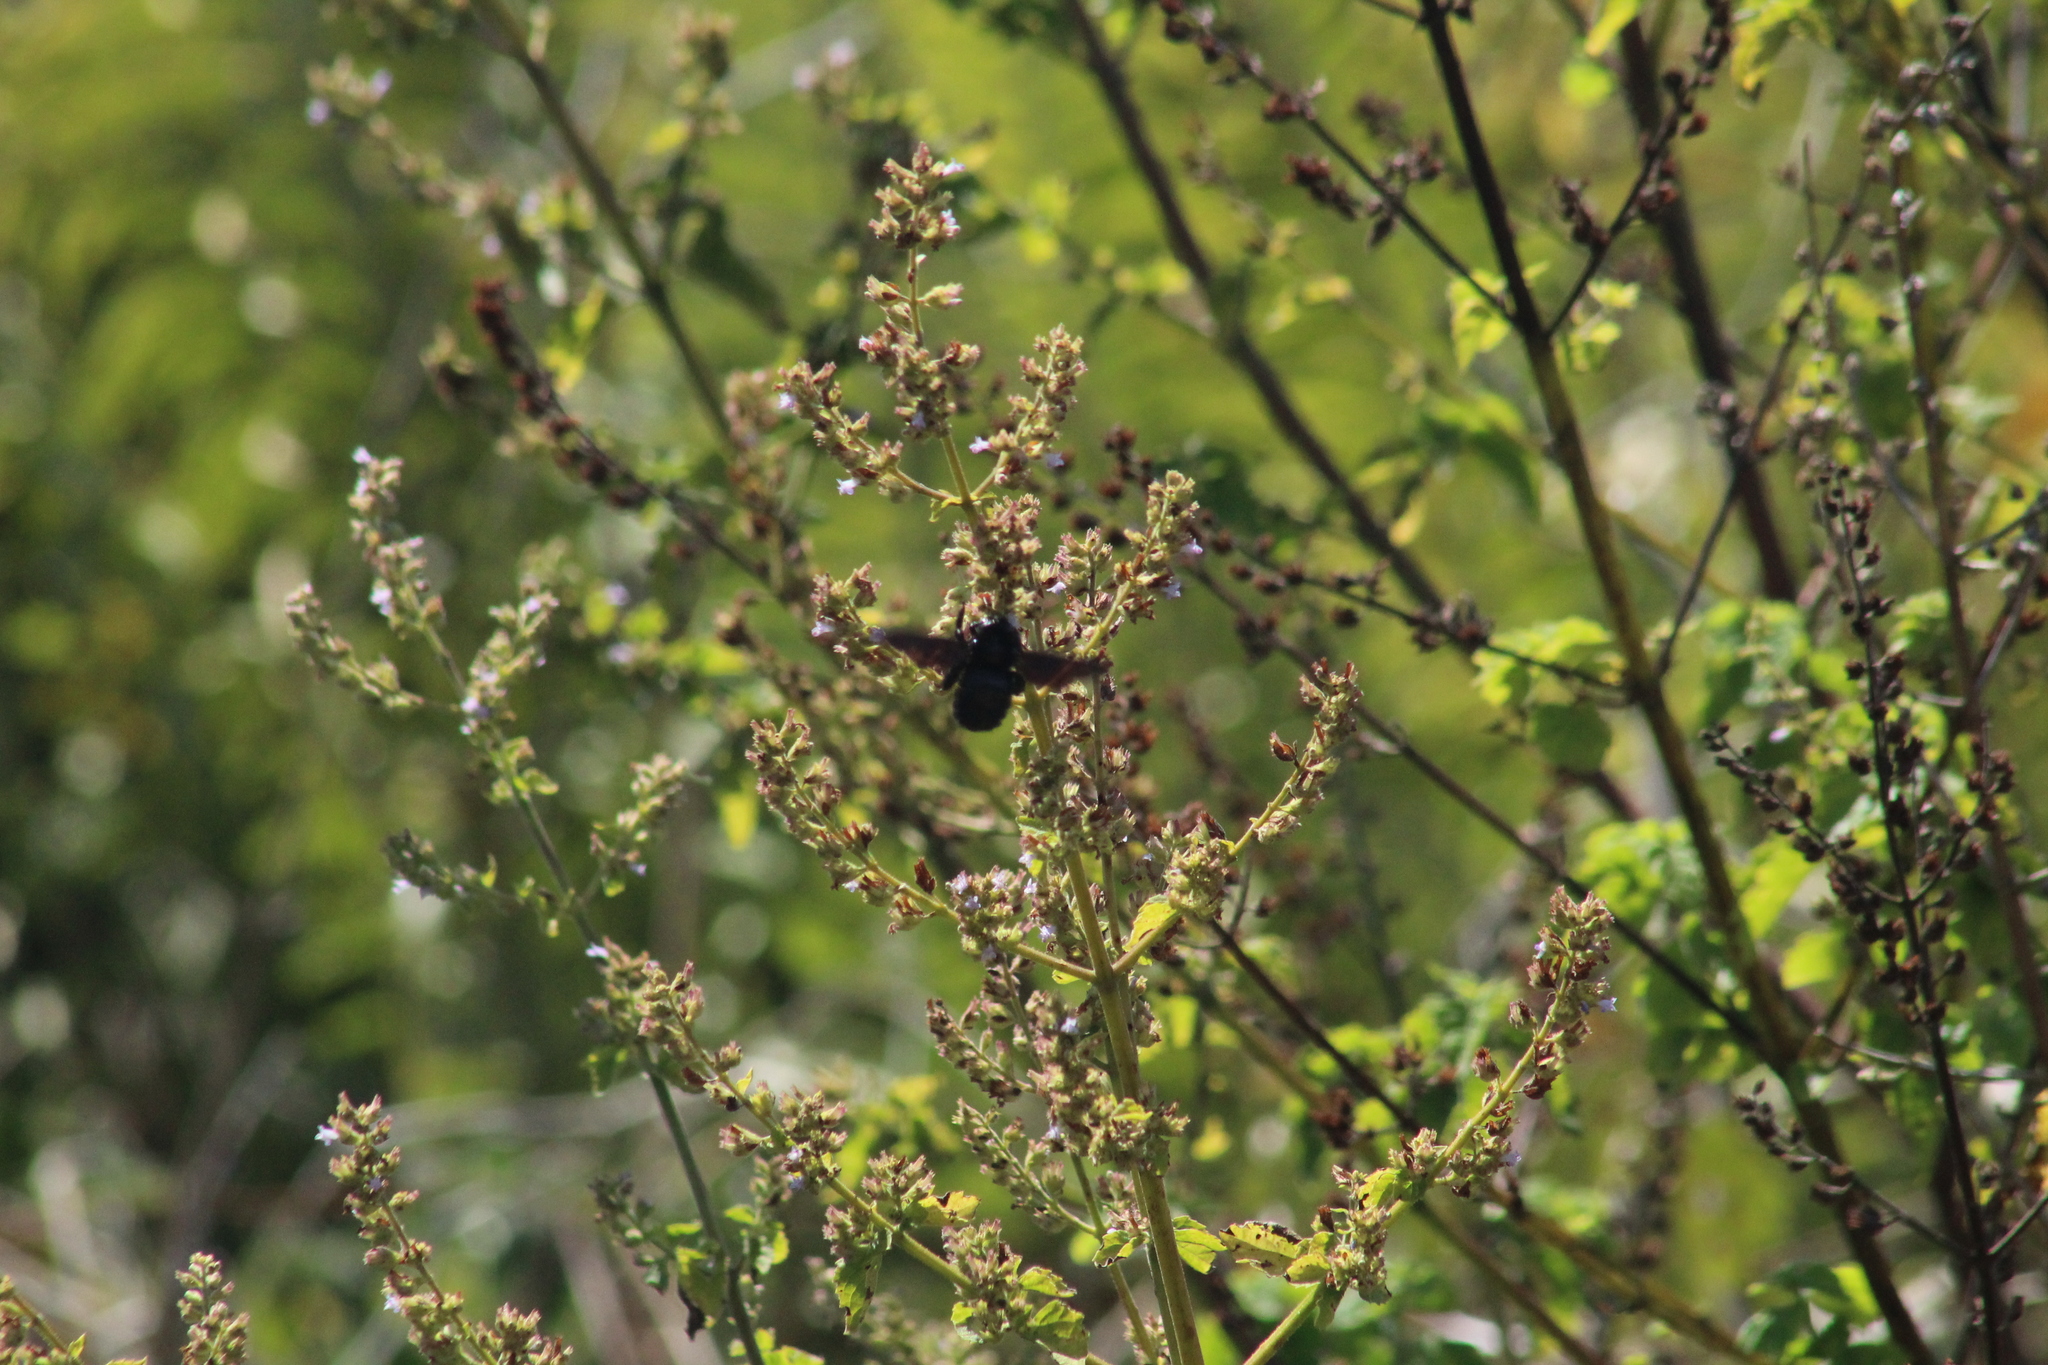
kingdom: Animalia
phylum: Arthropoda
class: Insecta
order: Hymenoptera
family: Apidae
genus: Xylocopa
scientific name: Xylocopa darwini
